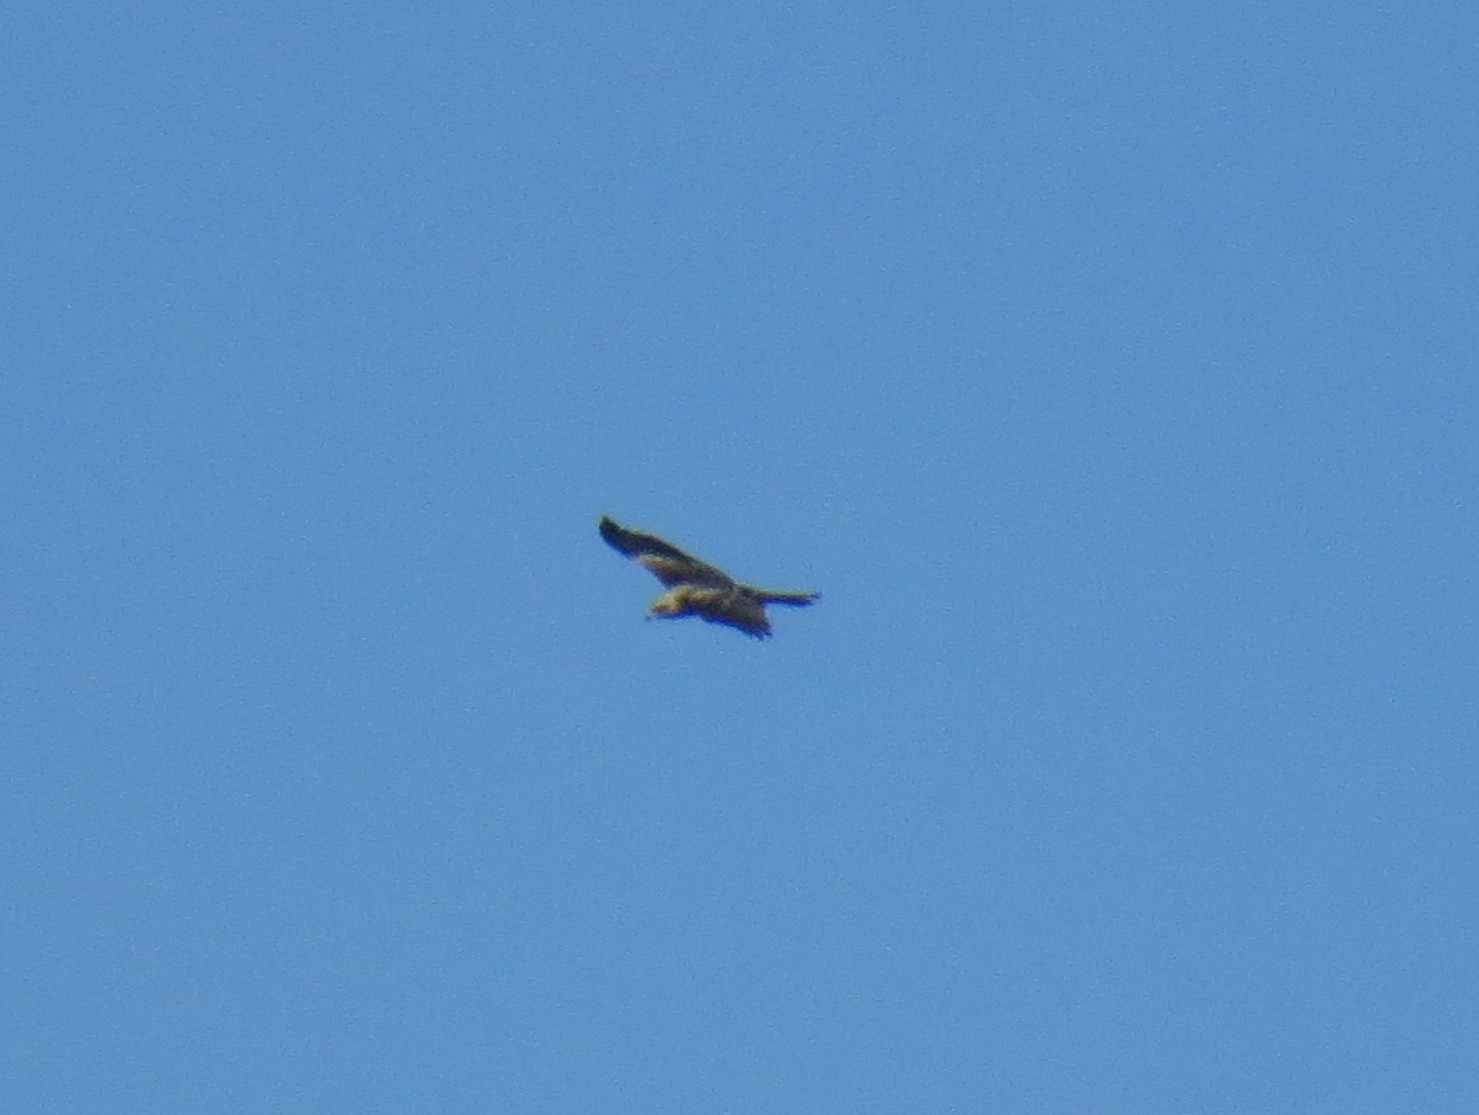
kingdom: Animalia
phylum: Chordata
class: Aves
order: Accipitriformes
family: Accipitridae
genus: Milvus
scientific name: Milvus migrans
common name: Black kite
